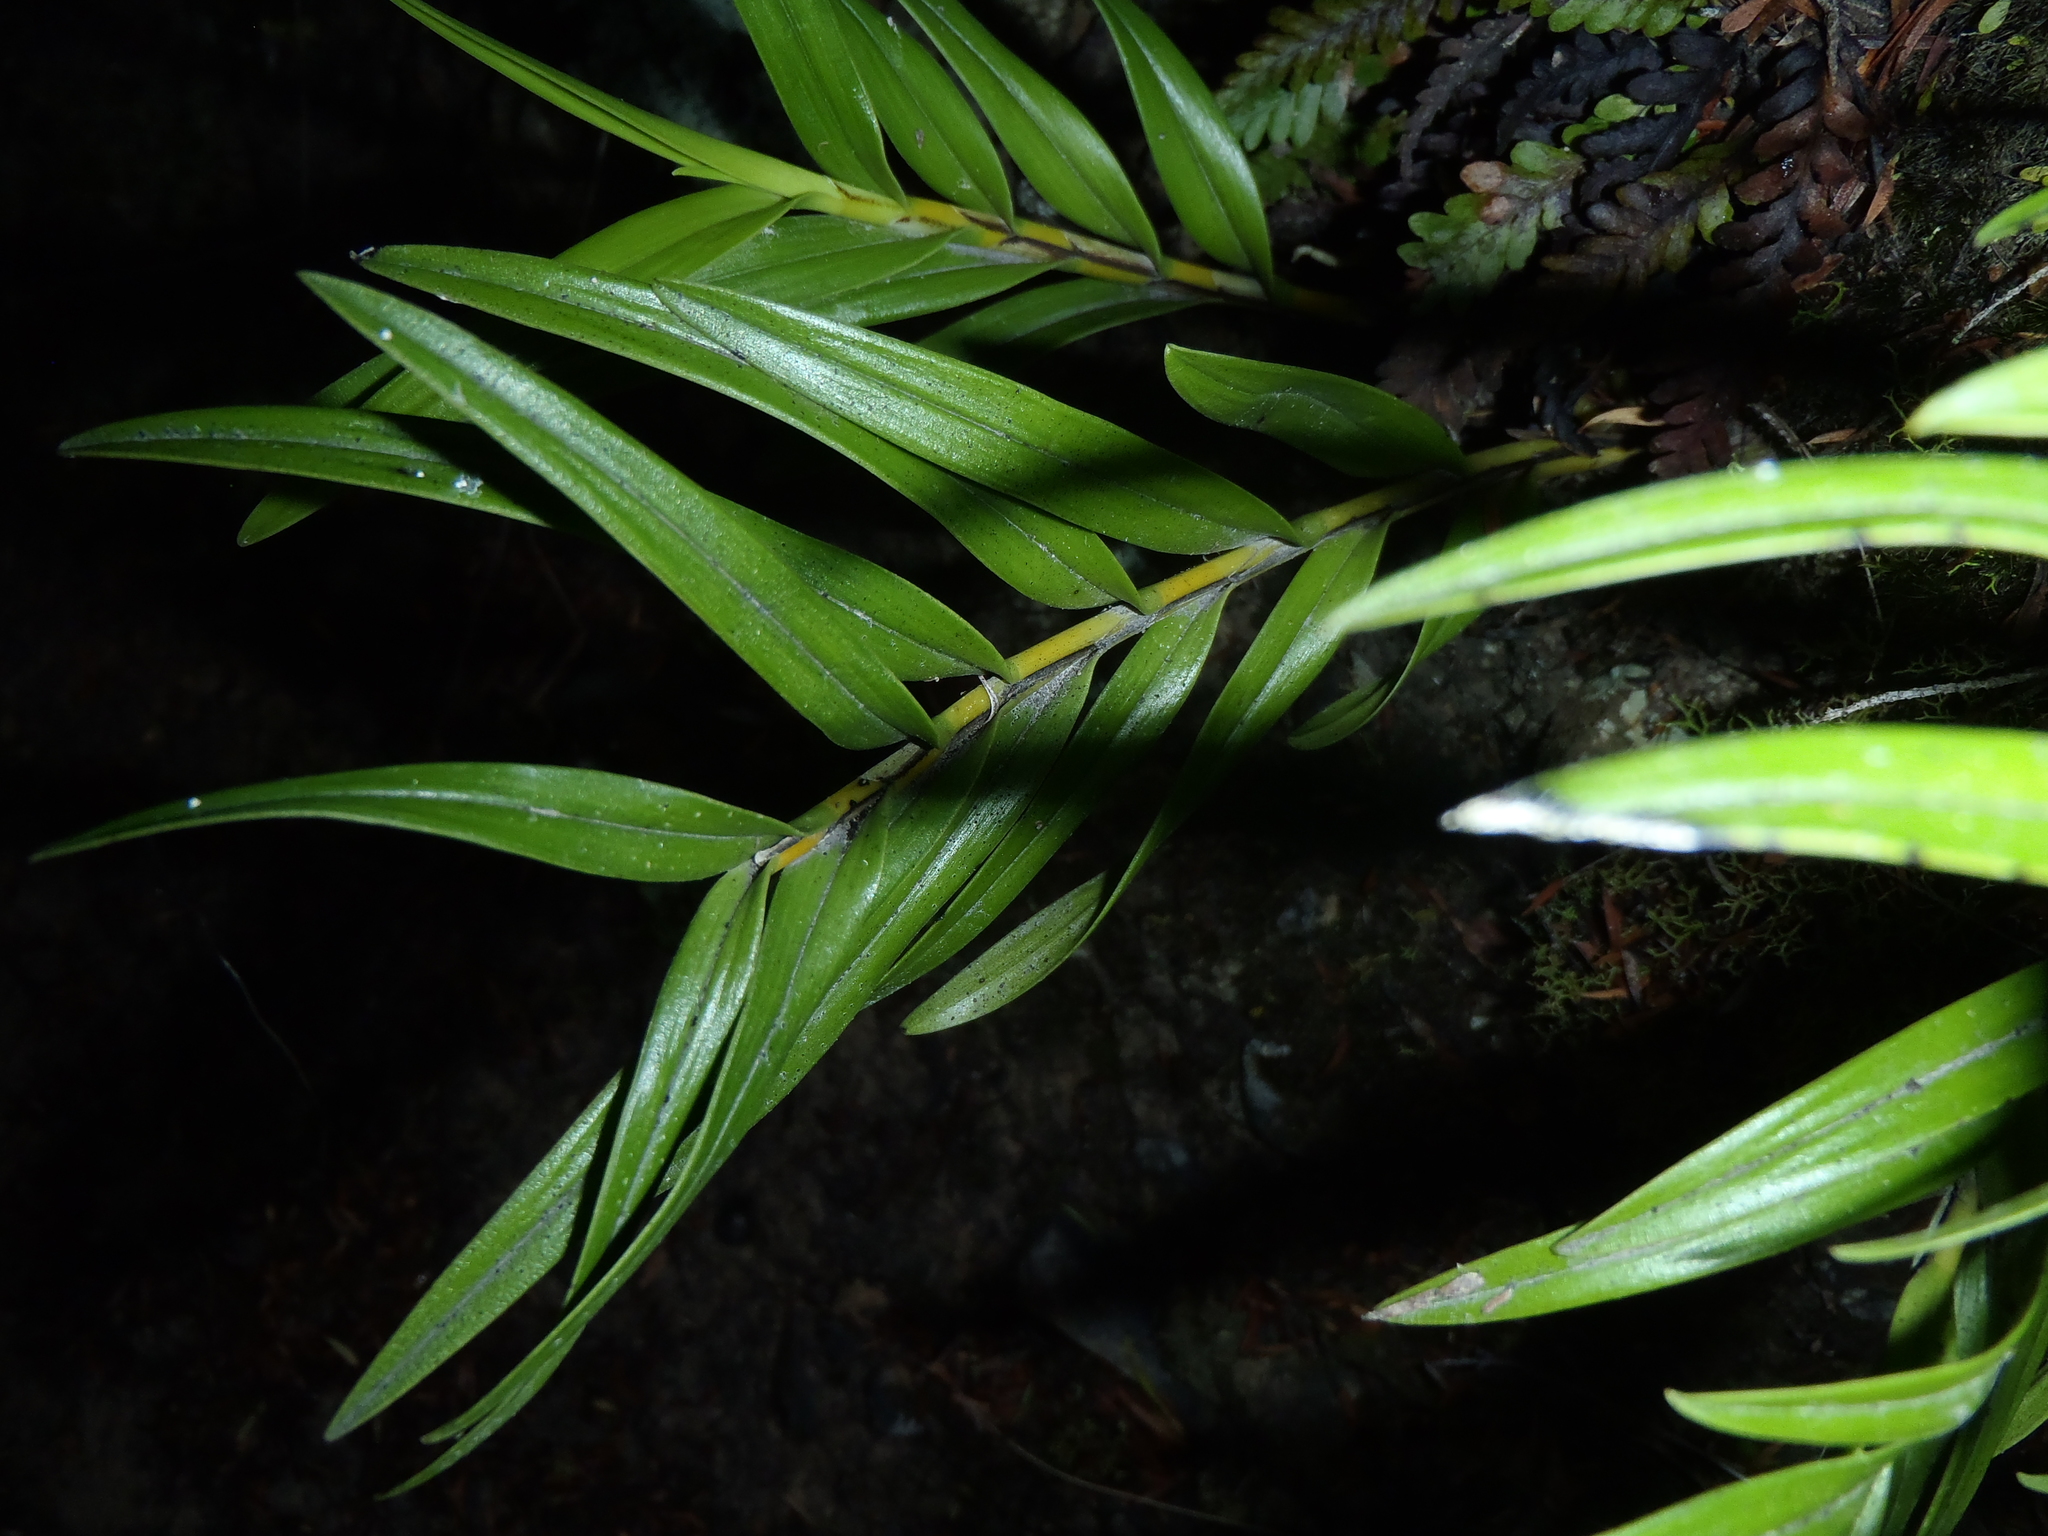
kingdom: Plantae
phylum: Tracheophyta
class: Liliopsida
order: Asparagales
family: Orchidaceae
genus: Earina
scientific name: Earina autumnalis
